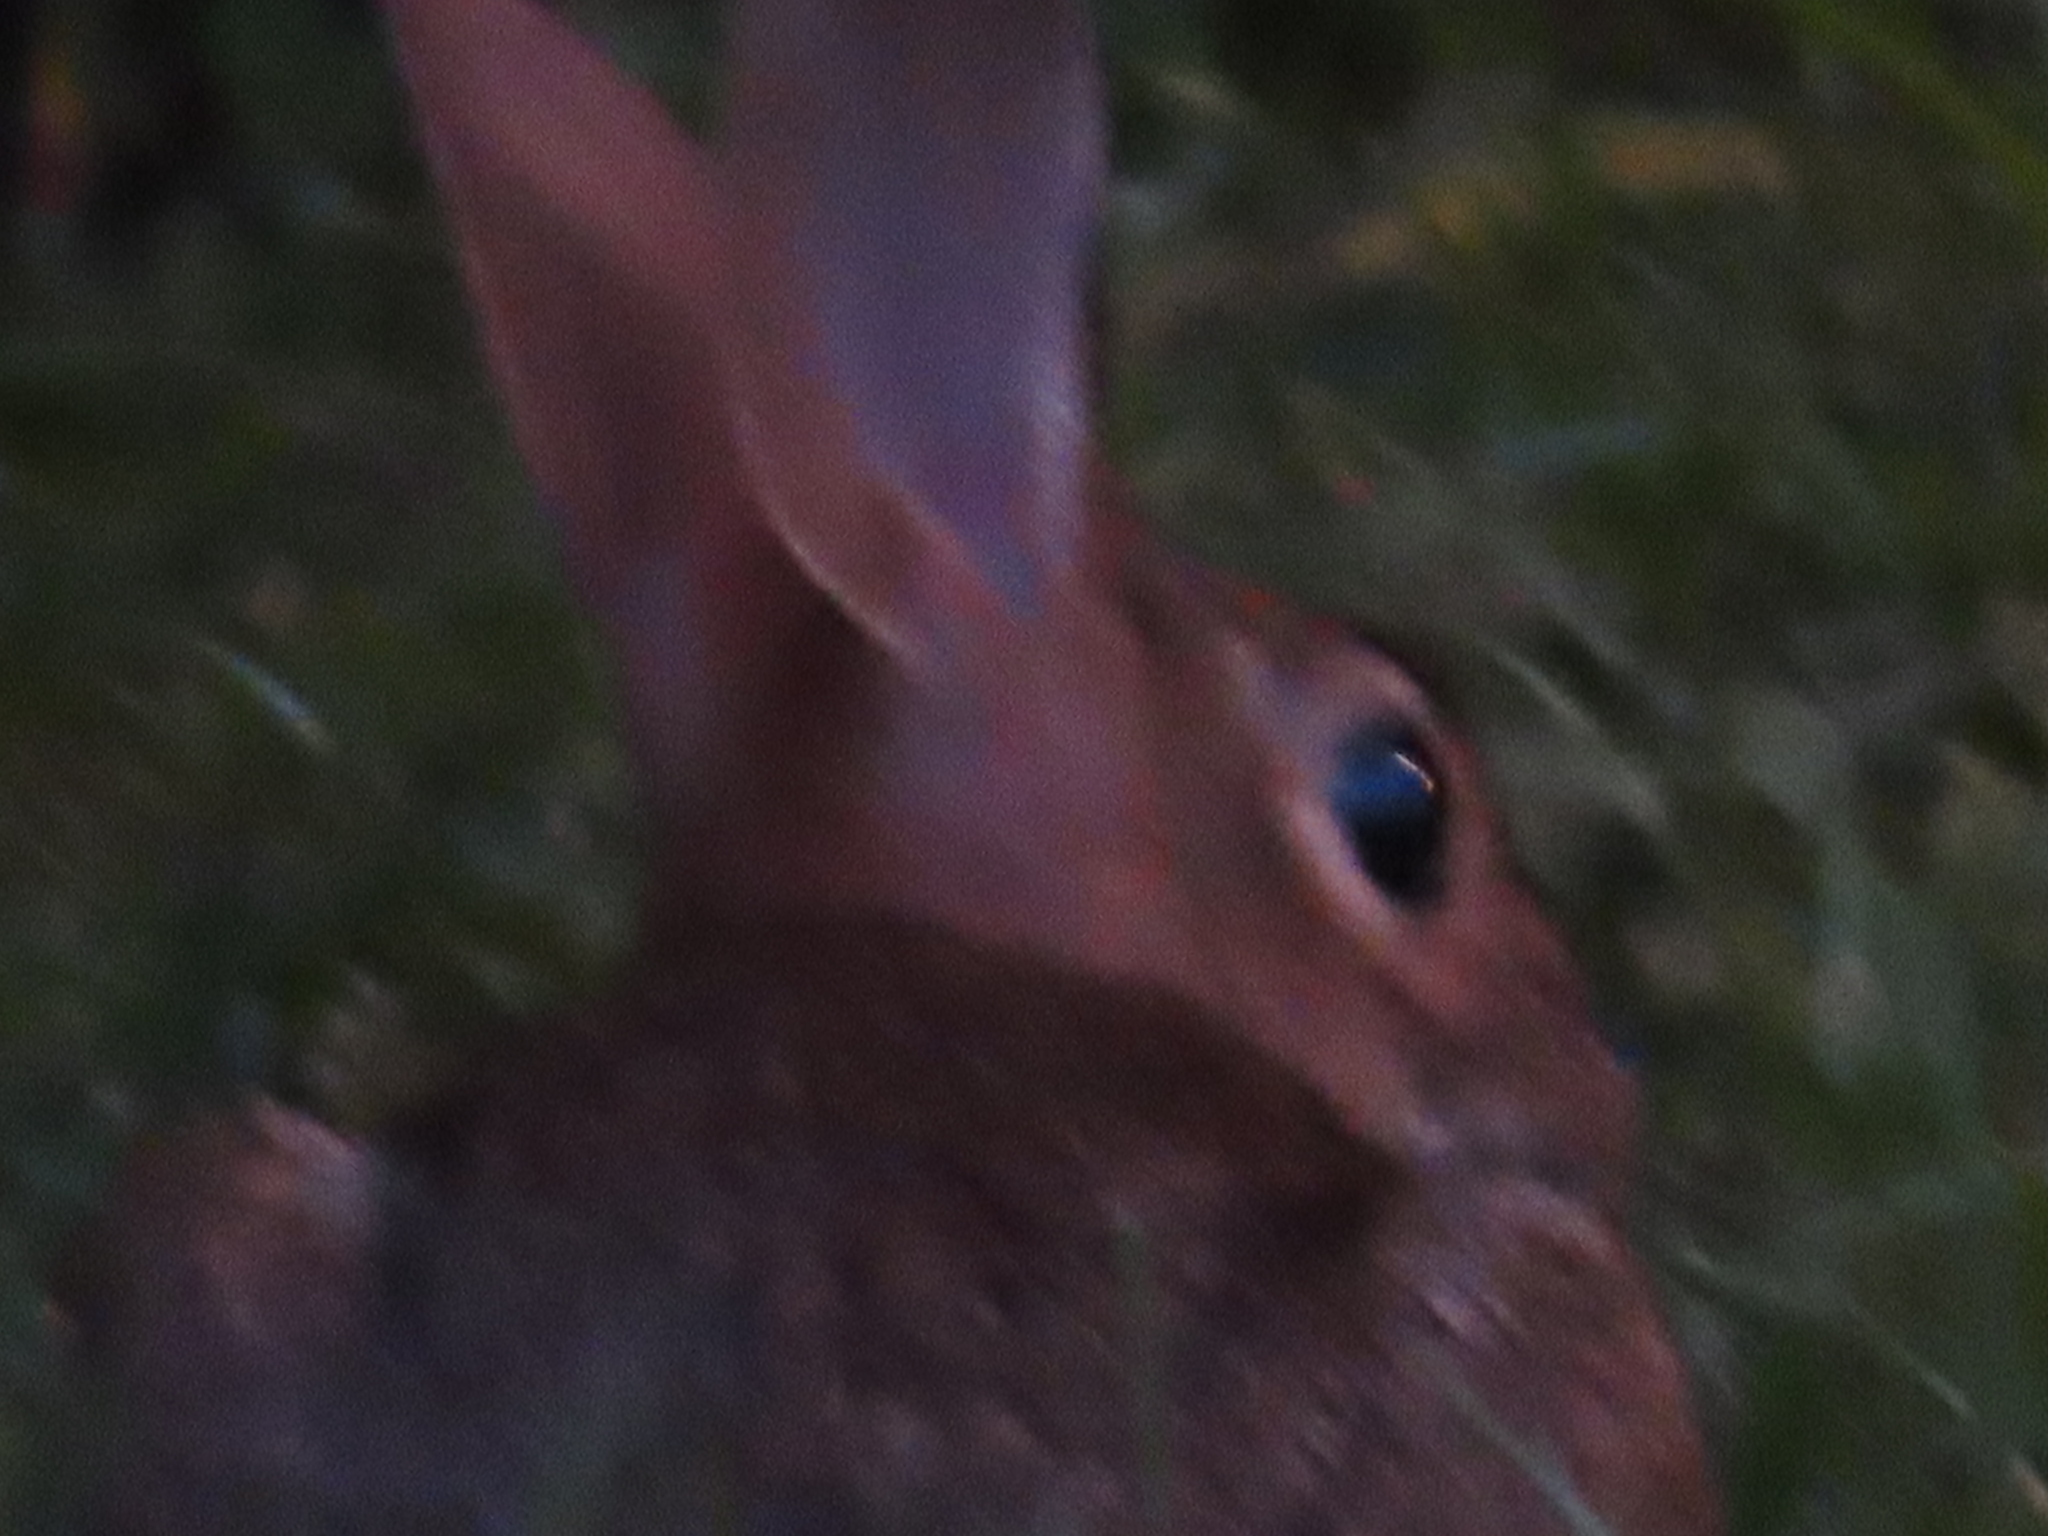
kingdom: Animalia
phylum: Chordata
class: Mammalia
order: Lagomorpha
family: Leporidae
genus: Sylvilagus
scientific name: Sylvilagus floridanus
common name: Eastern cottontail
